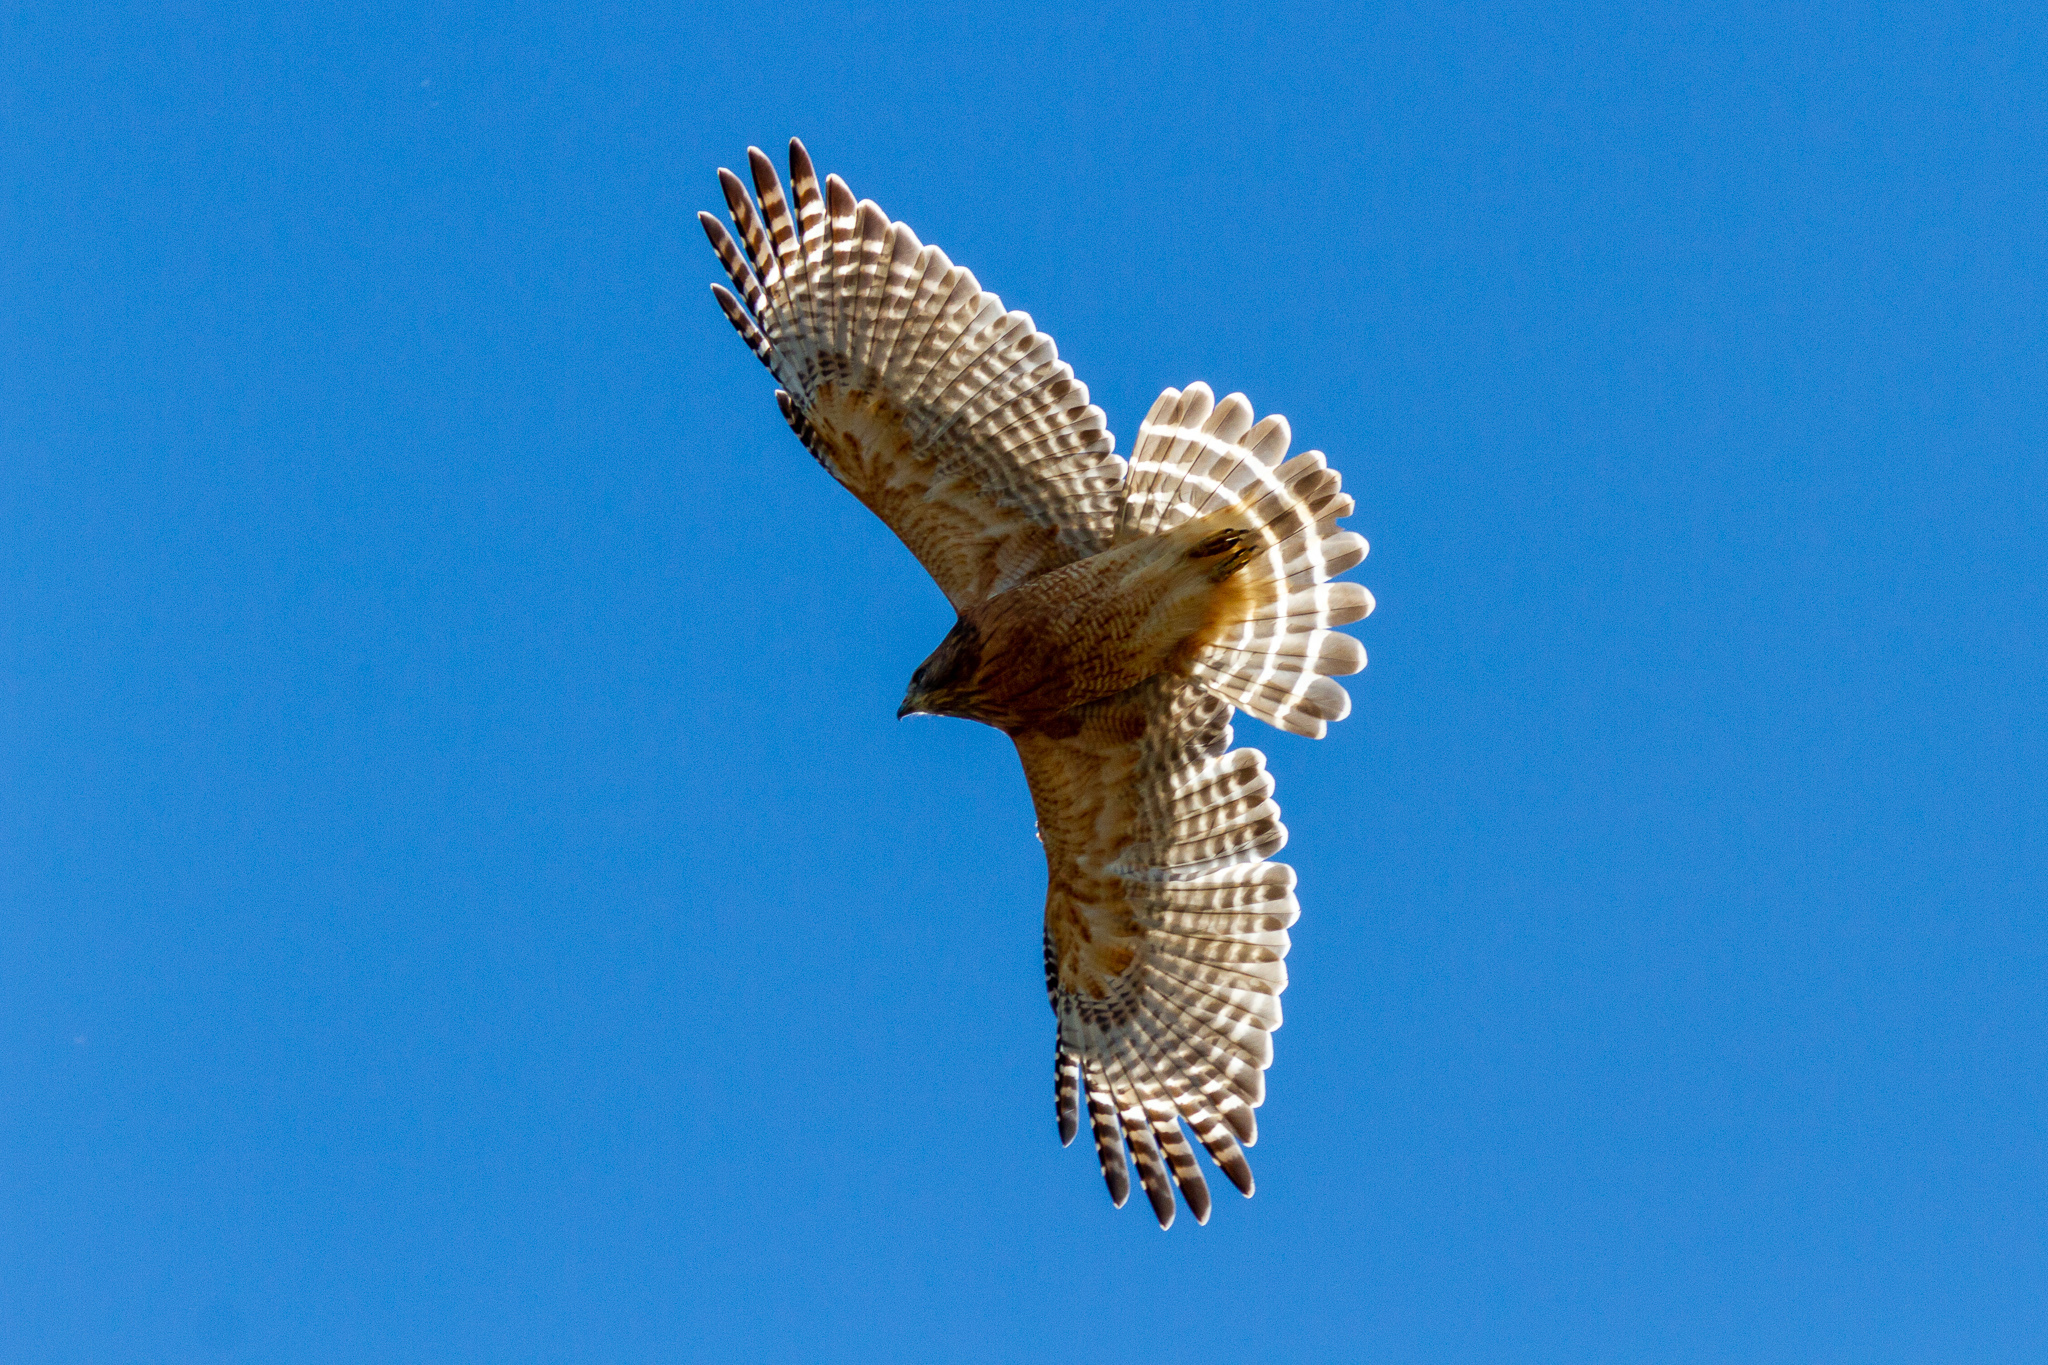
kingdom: Animalia
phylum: Chordata
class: Aves
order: Accipitriformes
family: Accipitridae
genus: Buteo
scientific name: Buteo lineatus
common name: Red-shouldered hawk
